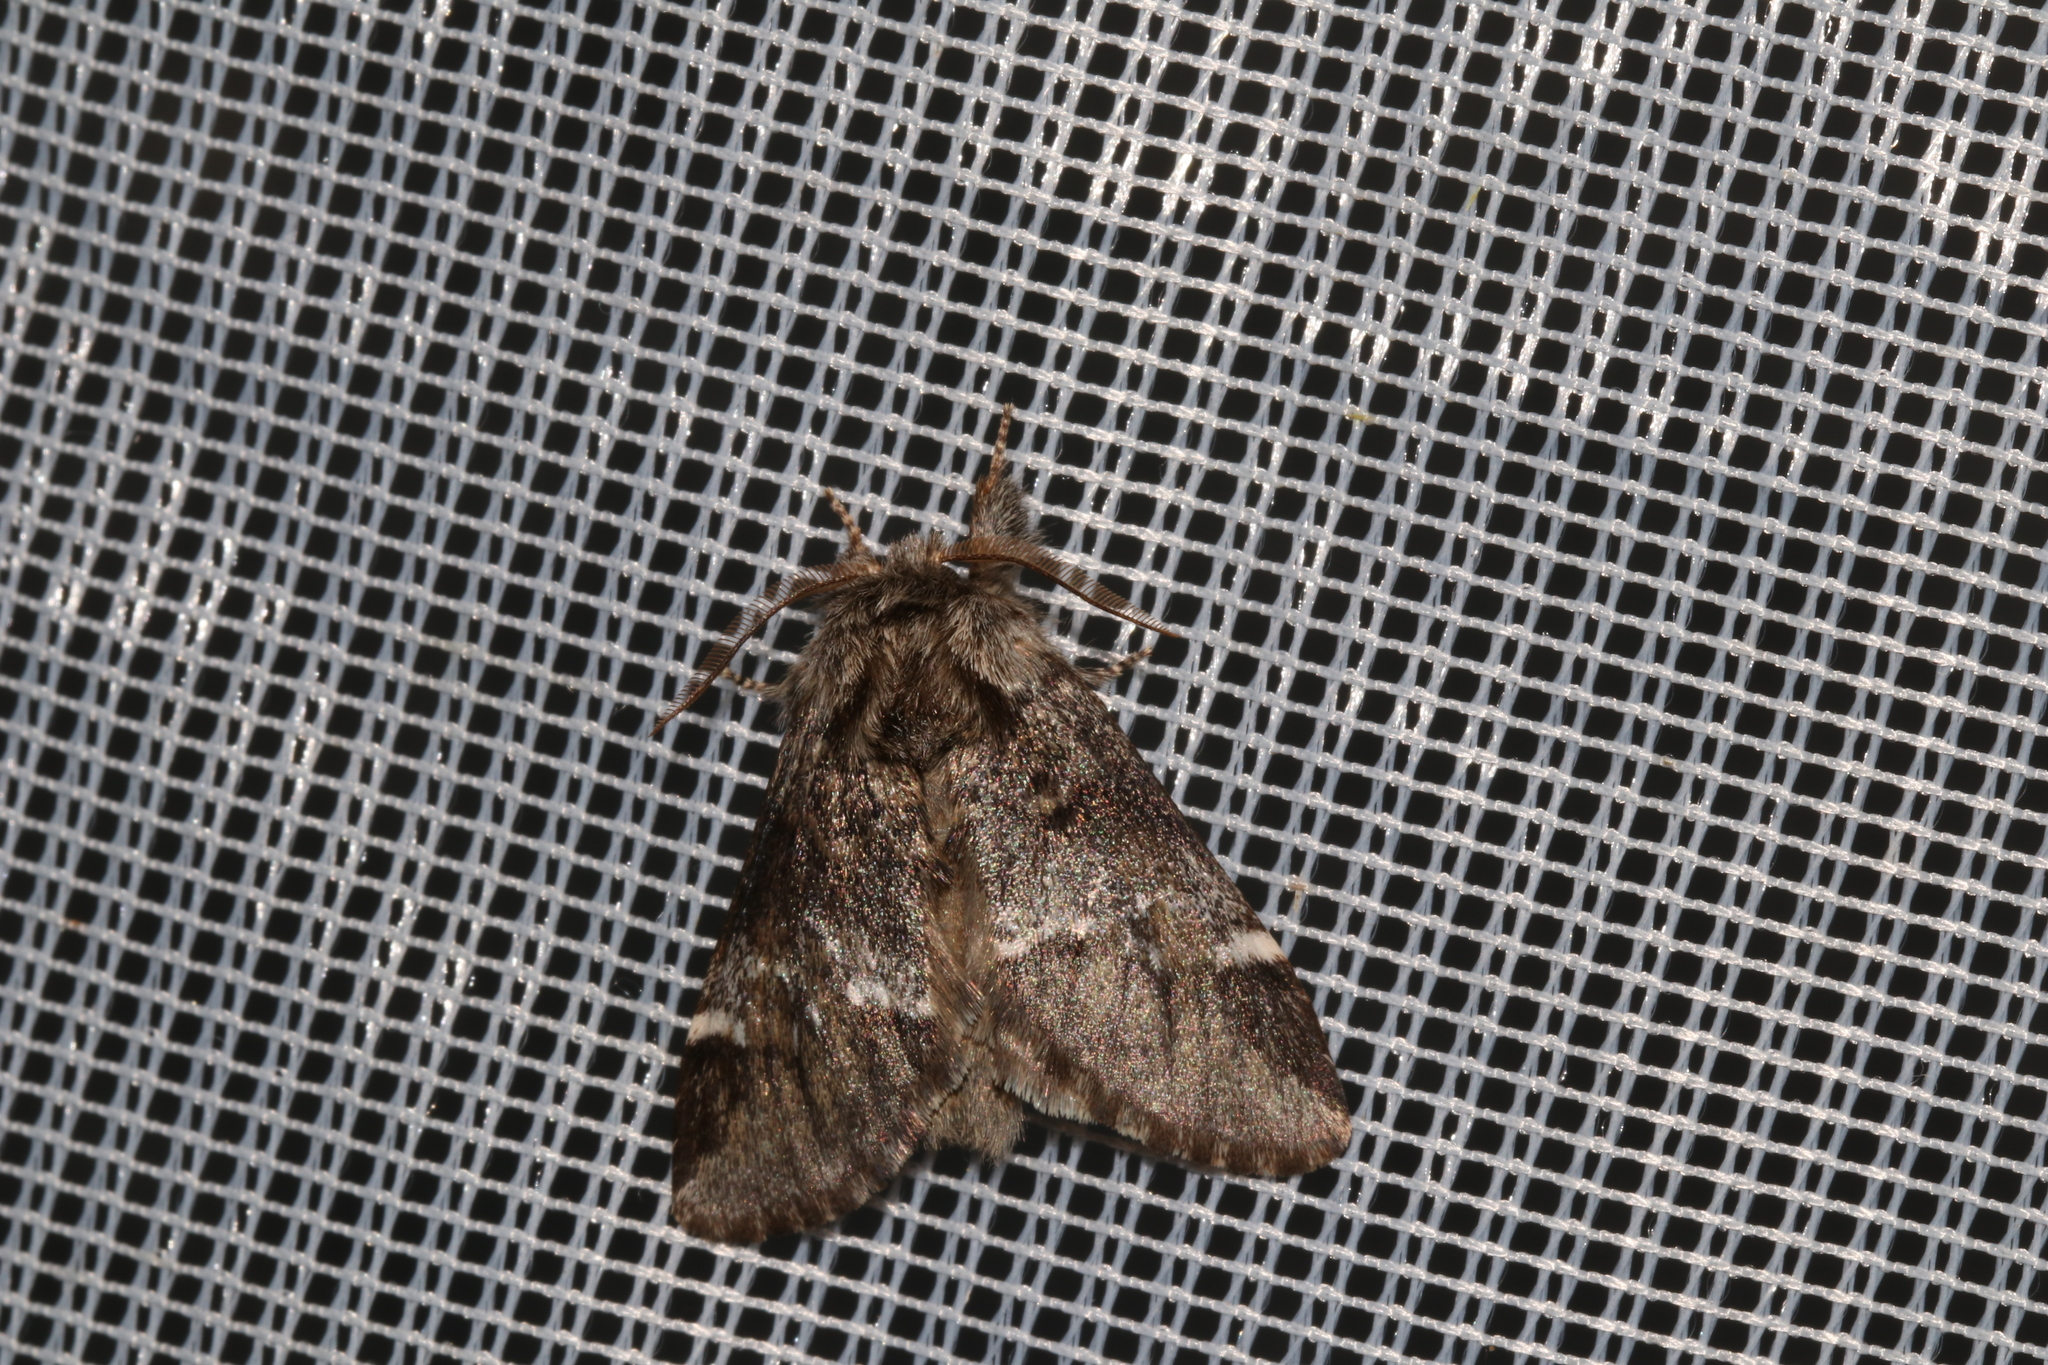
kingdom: Animalia
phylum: Arthropoda
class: Insecta
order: Lepidoptera
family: Notodontidae
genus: Drymonia
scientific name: Drymonia dodonaea
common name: Marbled brown
